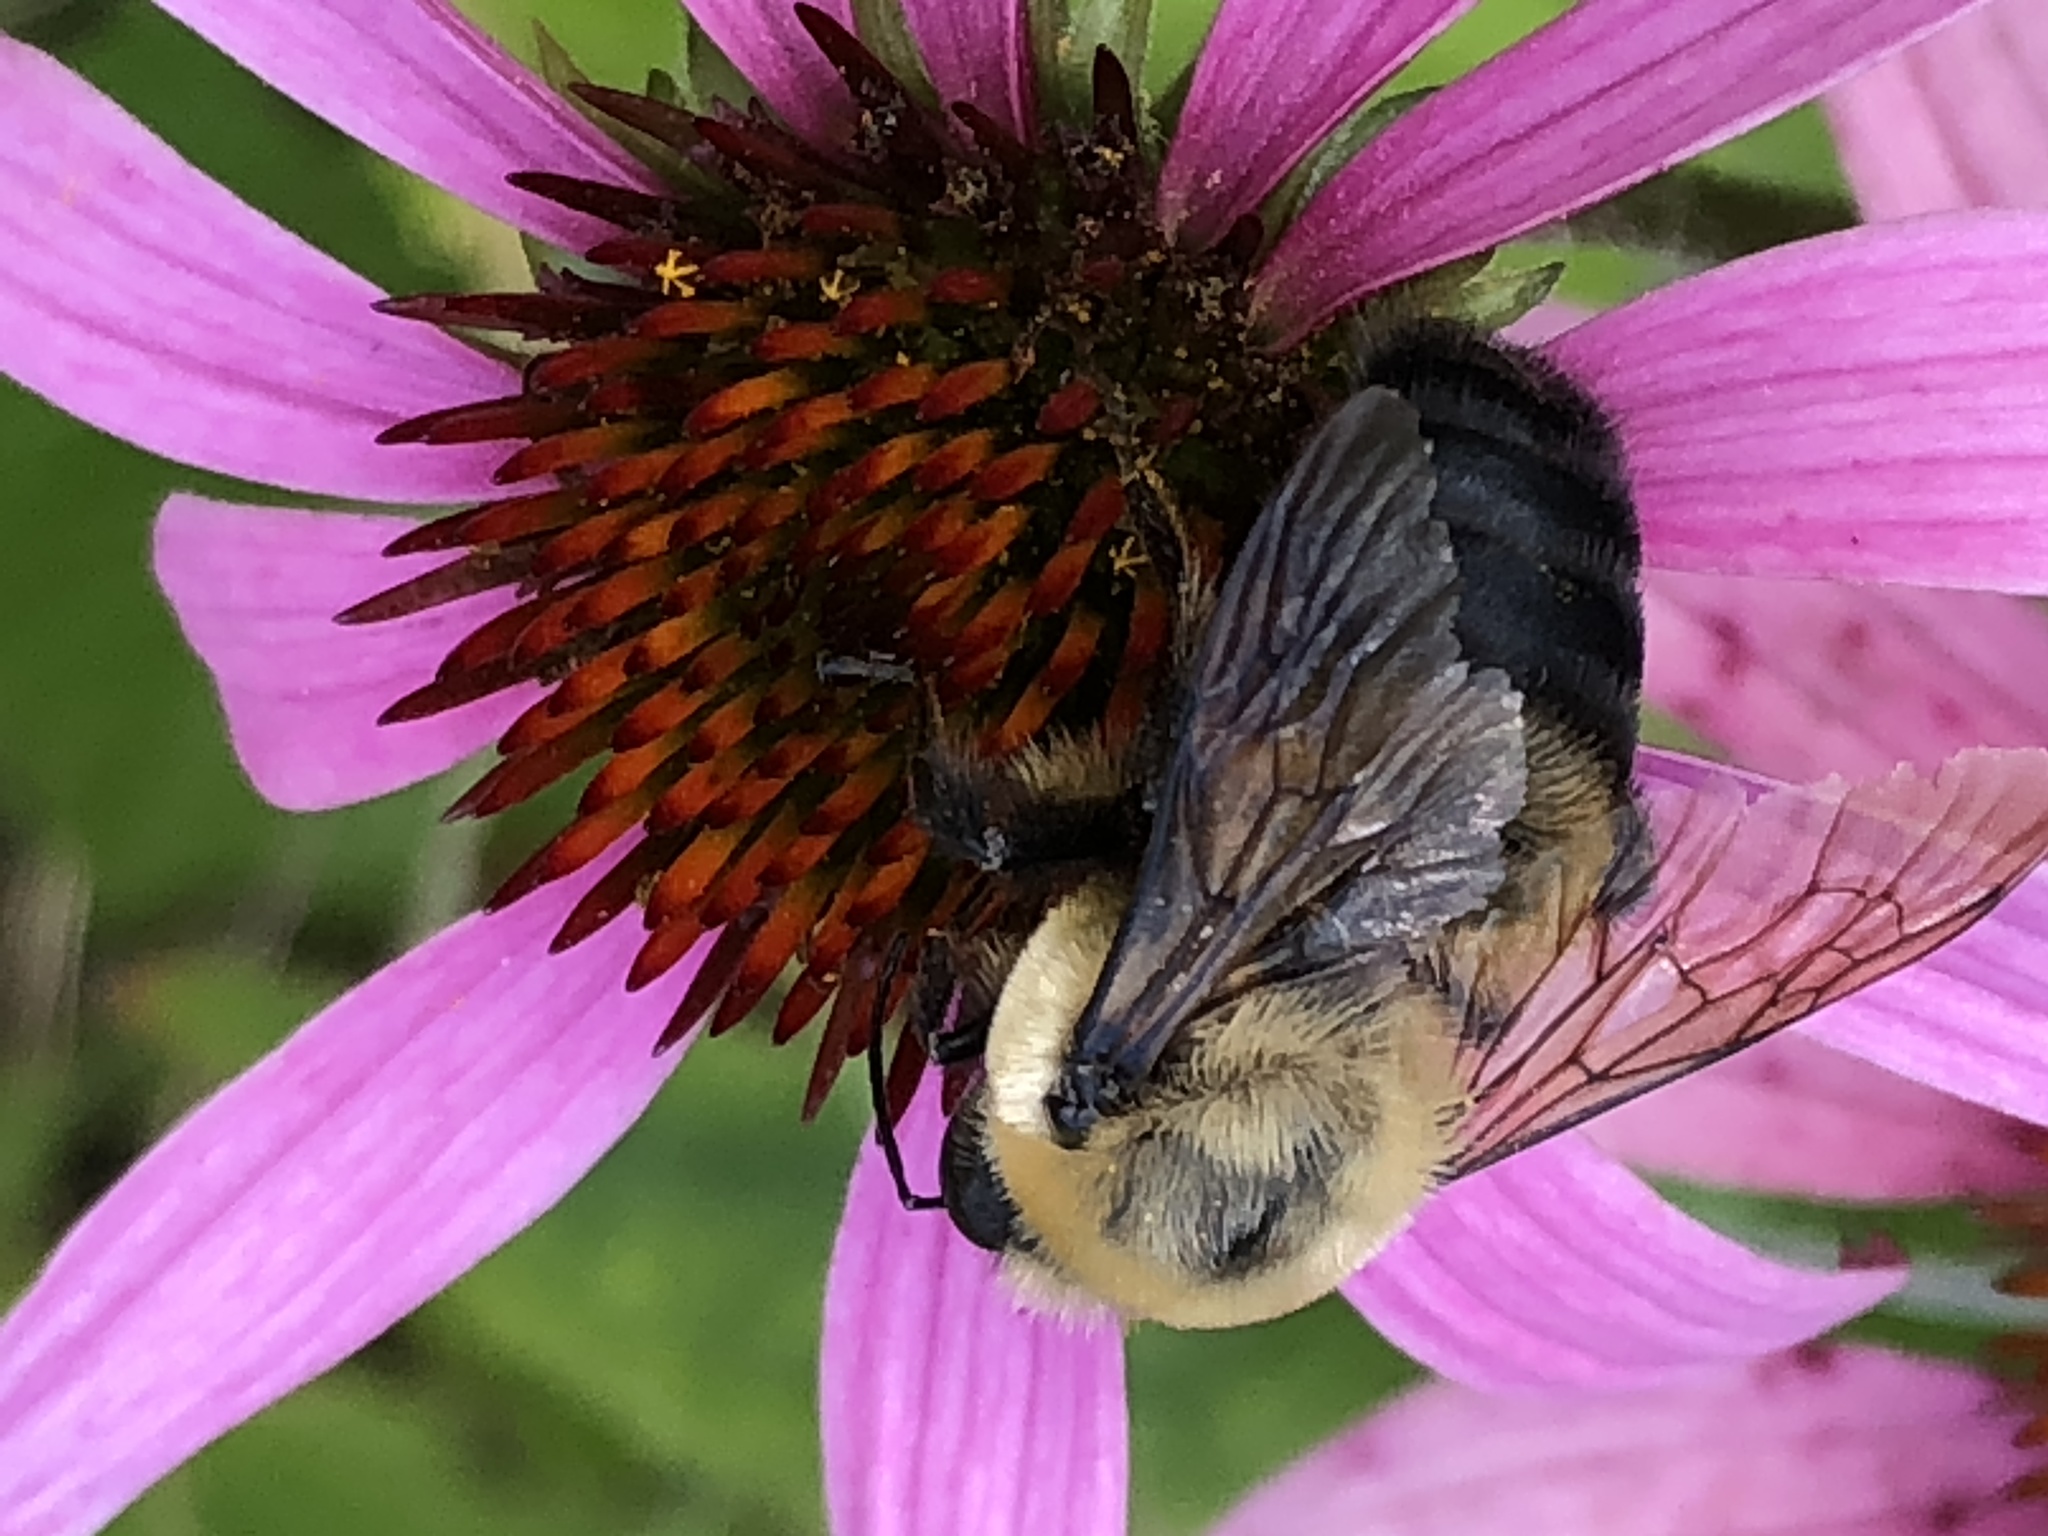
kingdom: Animalia
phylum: Arthropoda
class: Insecta
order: Hymenoptera
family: Apidae
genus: Bombus
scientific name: Bombus griseocollis
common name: Brown-belted bumble bee
